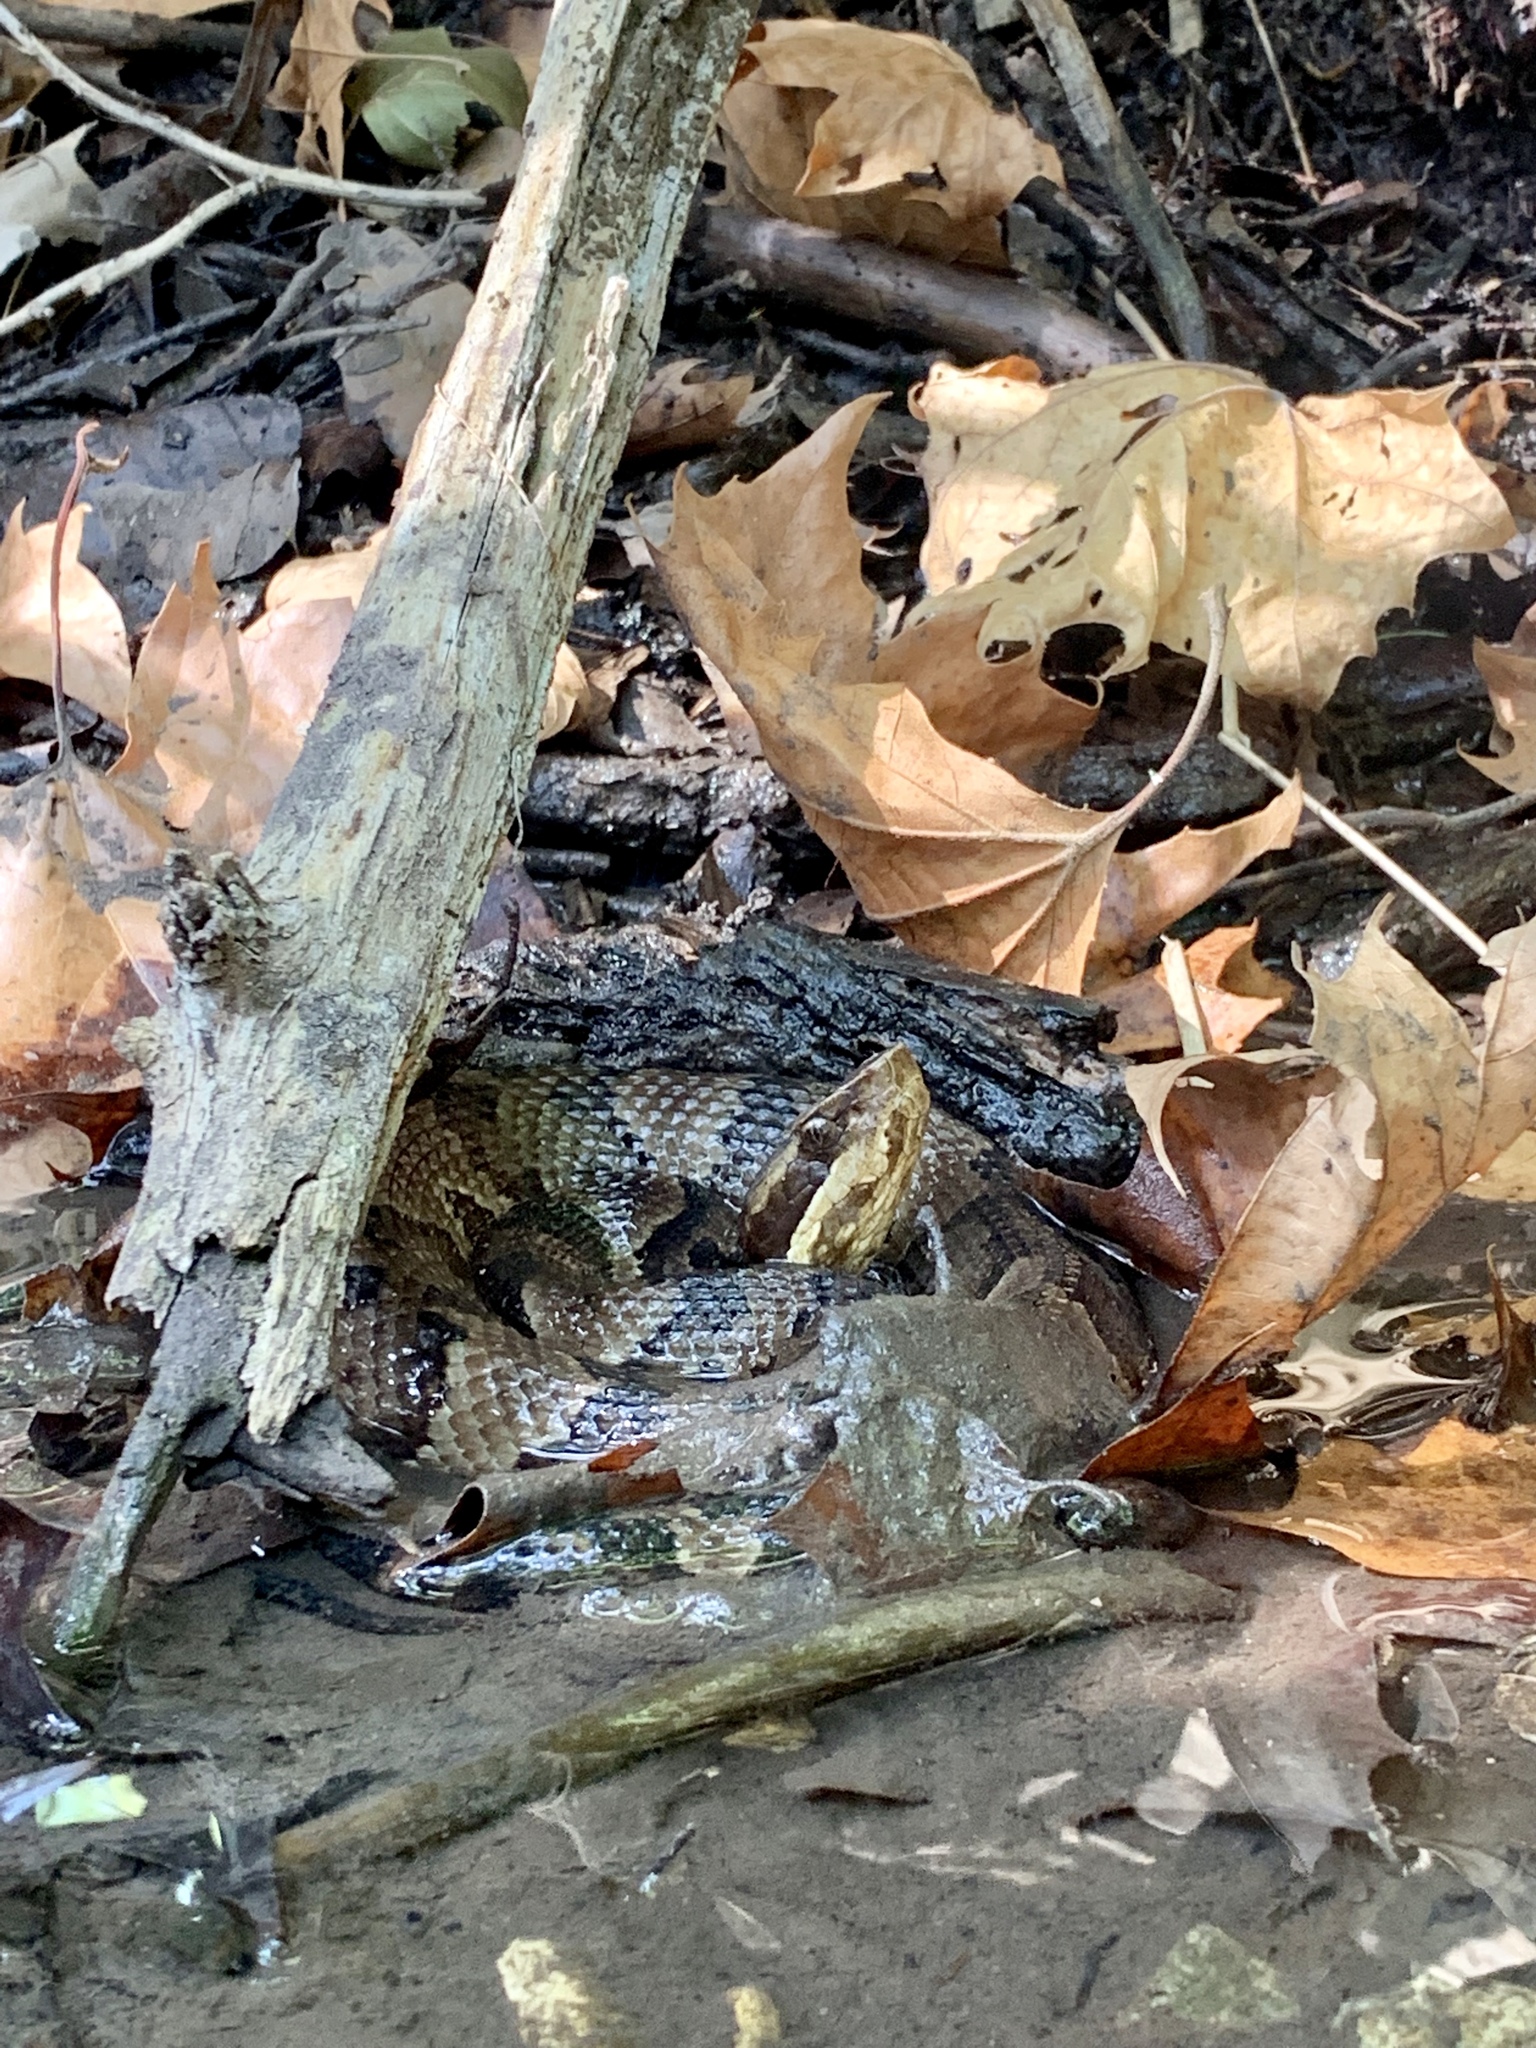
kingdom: Animalia
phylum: Chordata
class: Squamata
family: Viperidae
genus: Agkistrodon
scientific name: Agkistrodon piscivorus
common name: Cottonmouth
